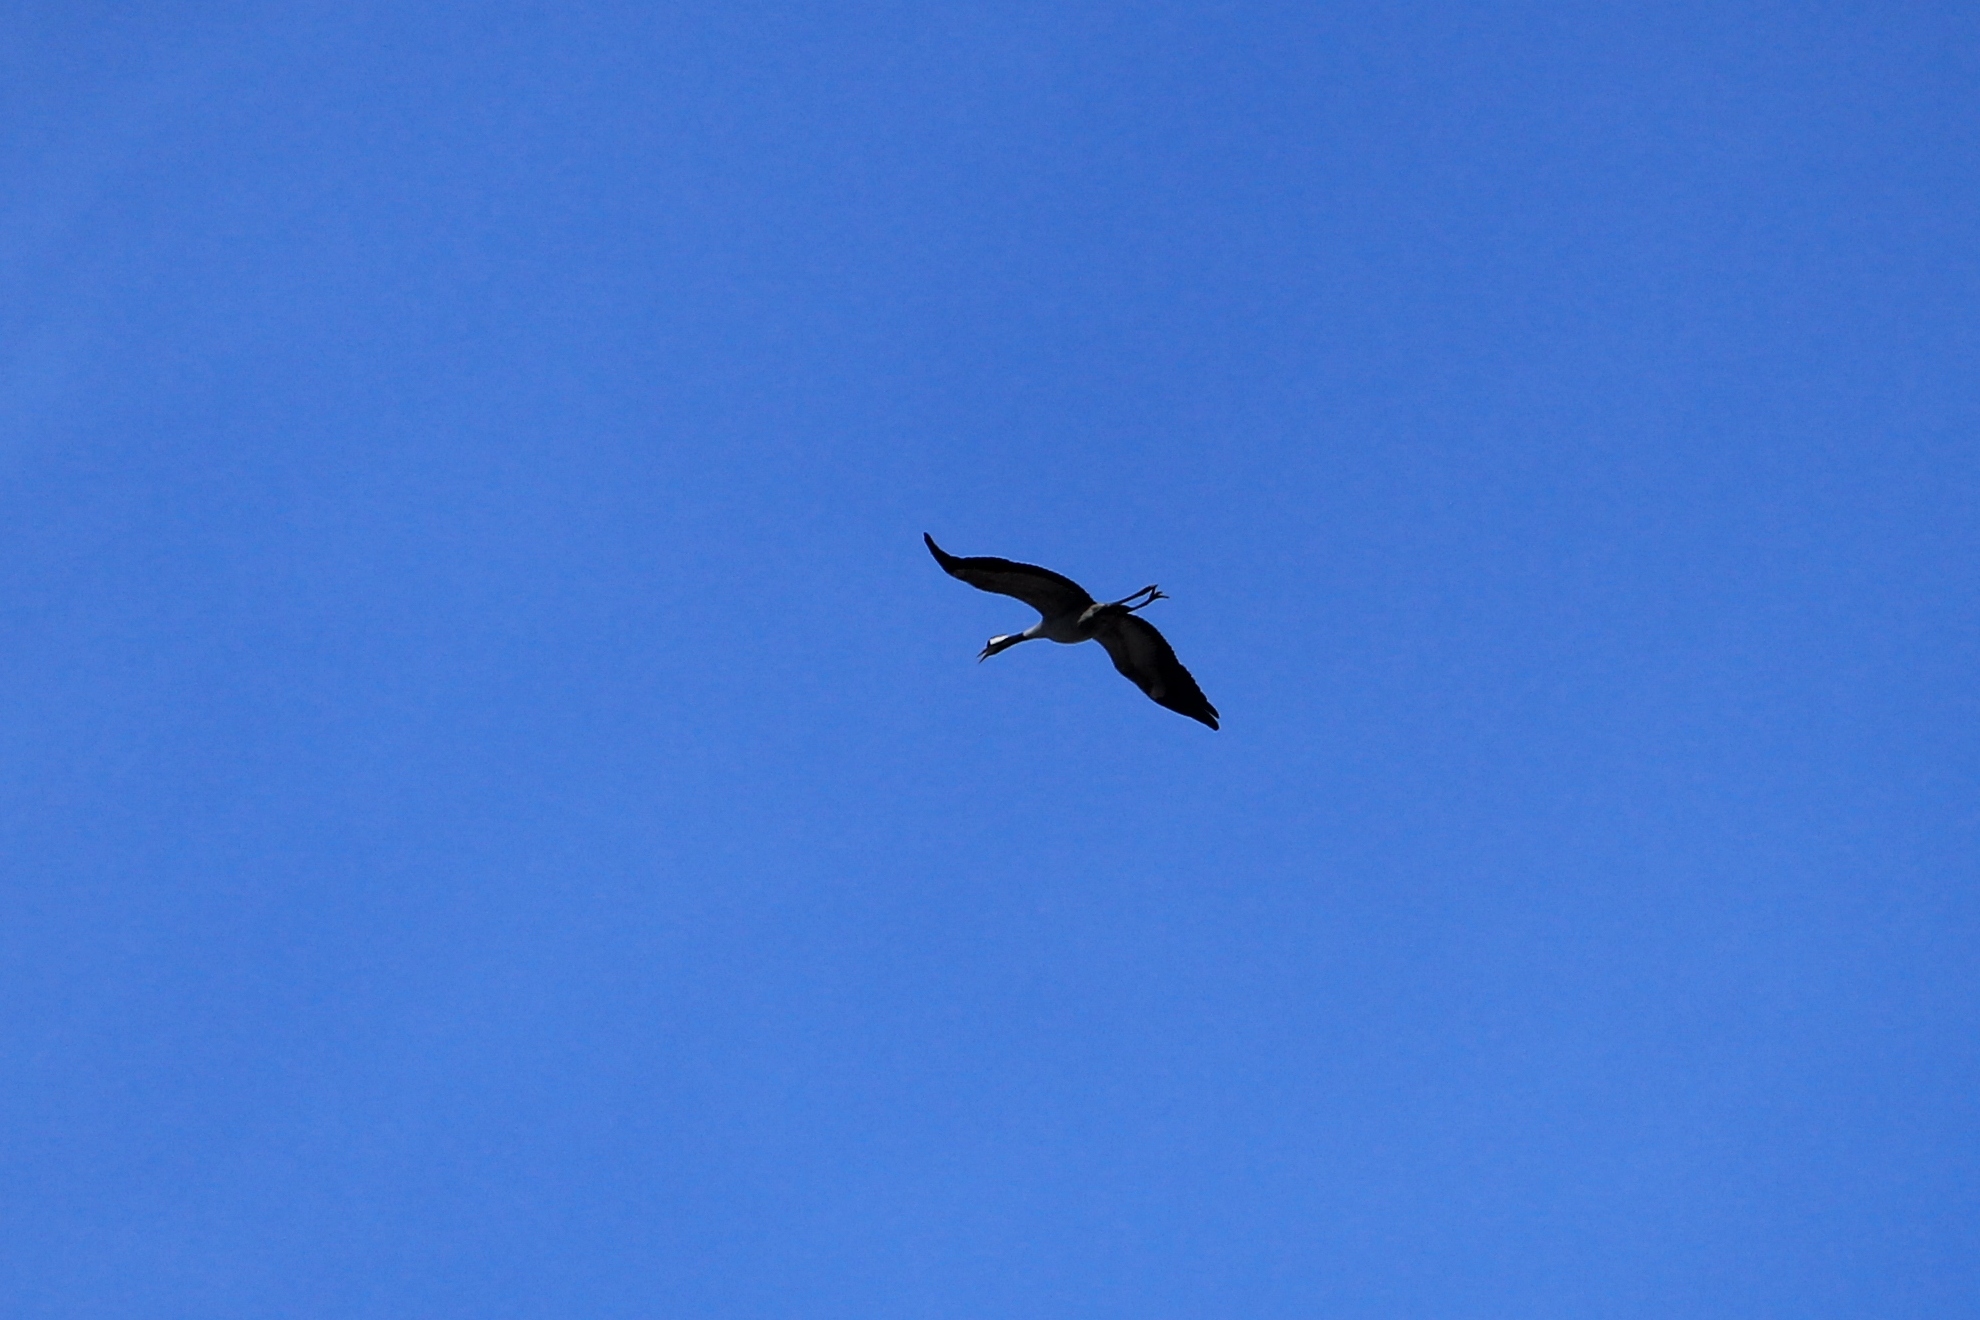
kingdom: Animalia
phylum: Chordata
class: Aves
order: Gruiformes
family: Gruidae
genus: Grus
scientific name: Grus grus
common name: Common crane
